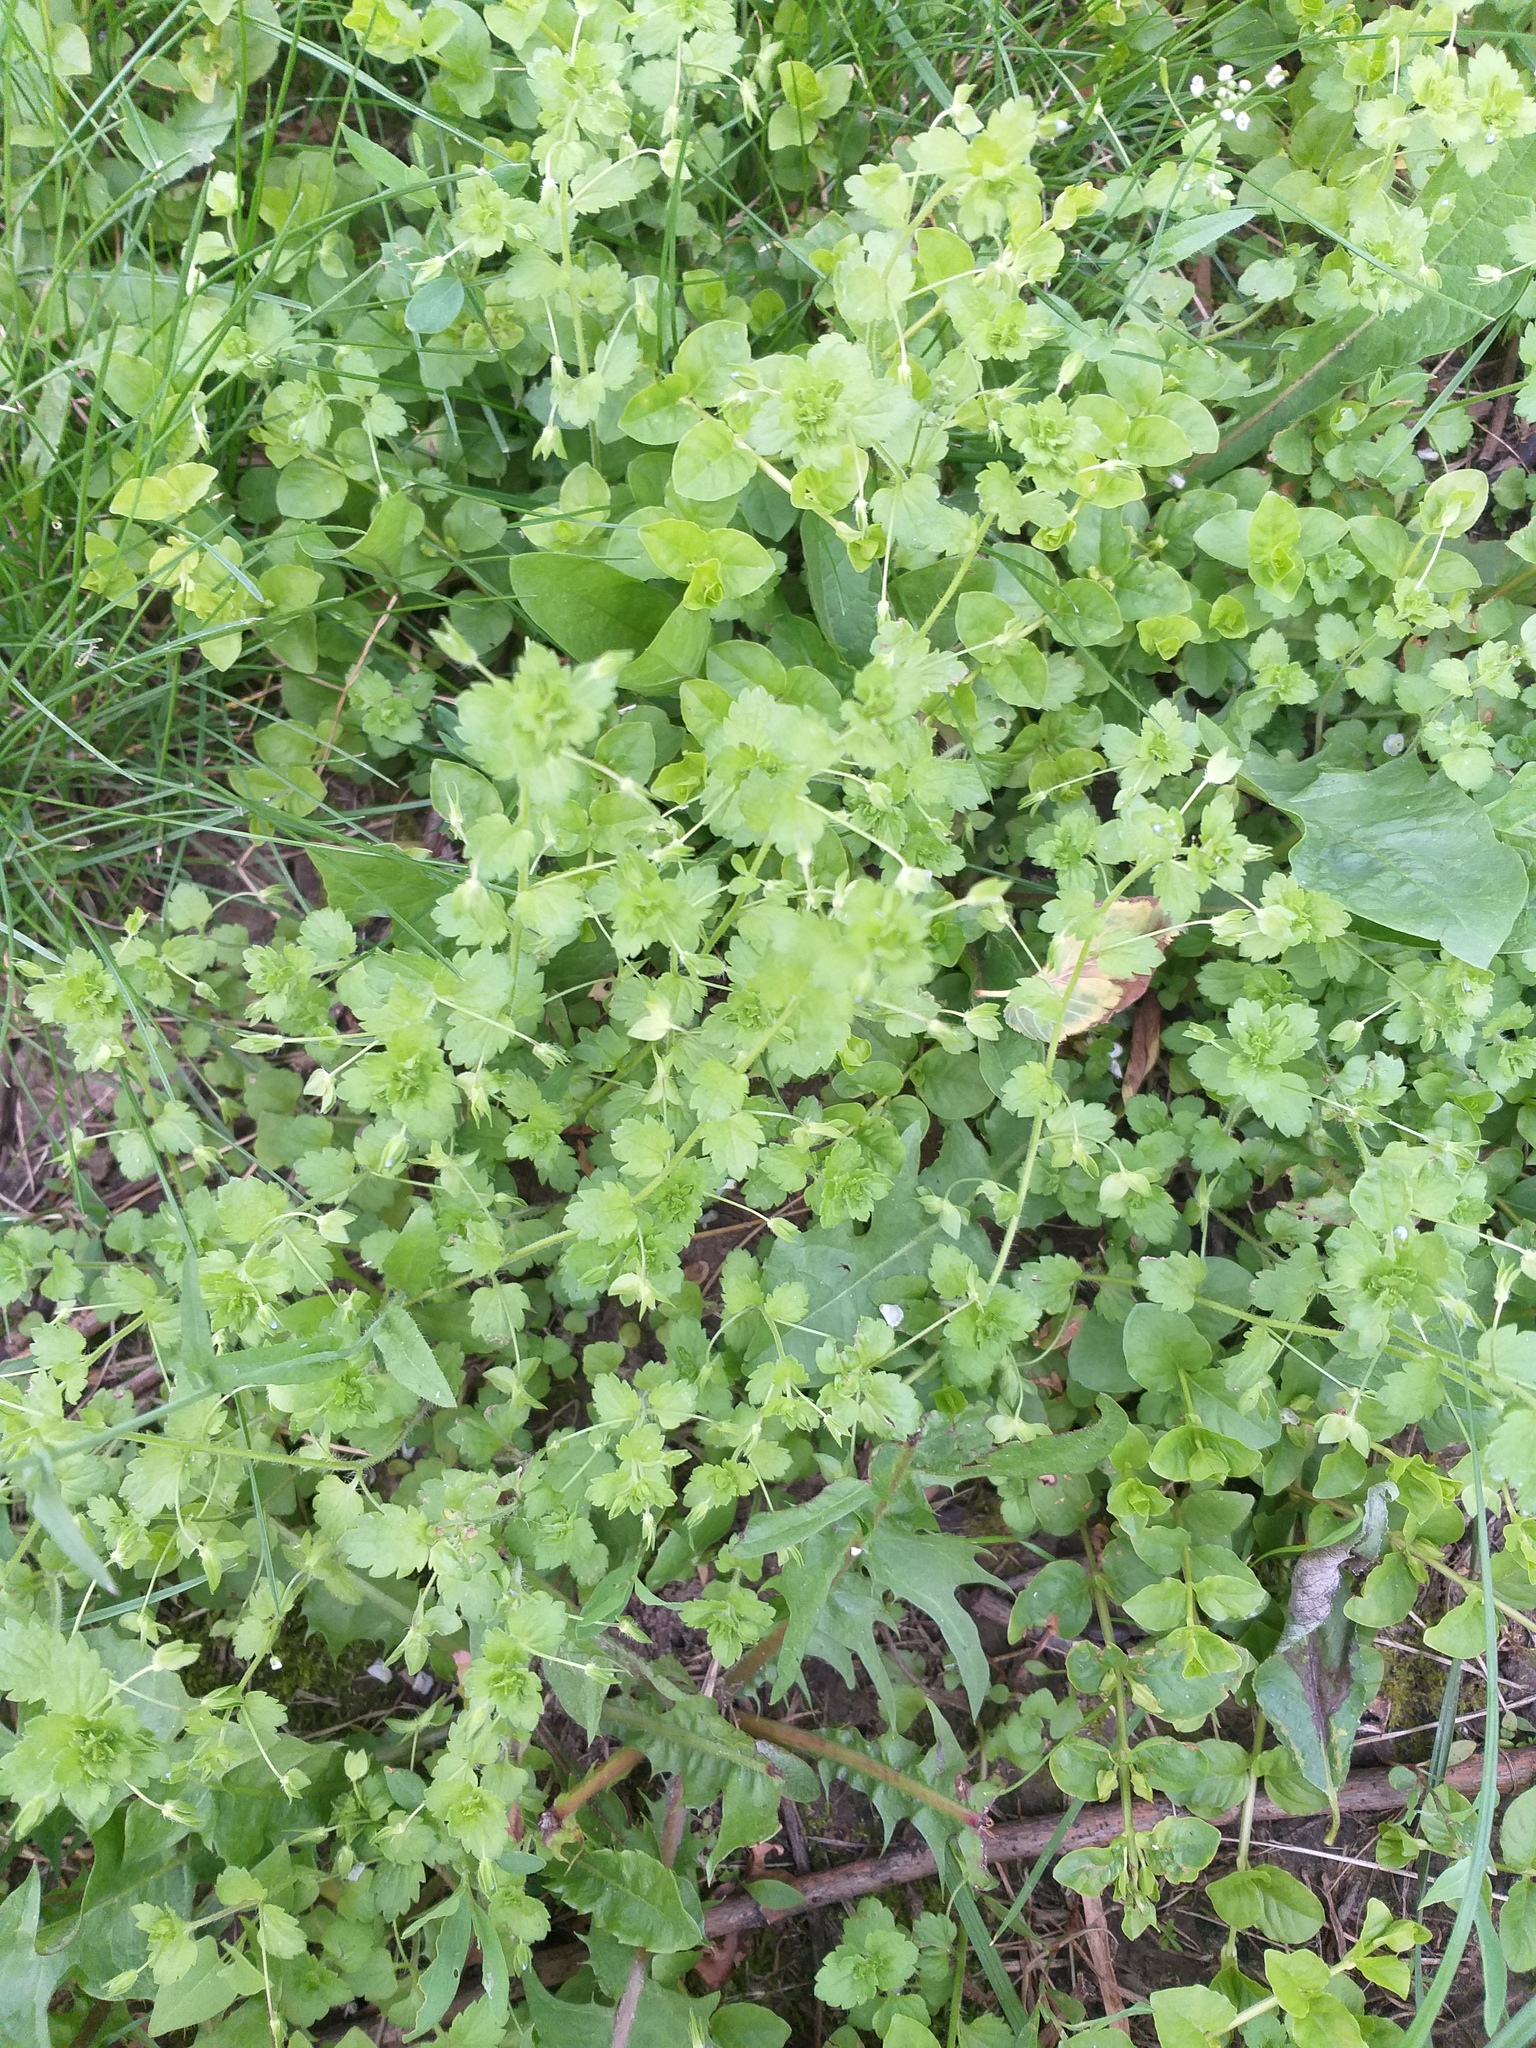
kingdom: Plantae
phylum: Tracheophyta
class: Magnoliopsida
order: Lamiales
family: Plantaginaceae
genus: Veronica
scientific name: Veronica persica
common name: Common field-speedwell
